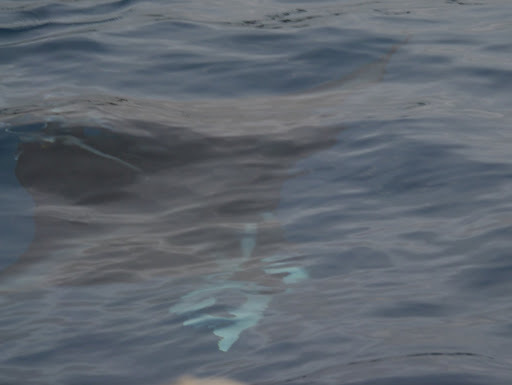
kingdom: Animalia
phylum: Chordata
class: Elasmobranchii
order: Myliobatiformes
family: Myliobatidae
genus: Mobula
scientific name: Mobula
